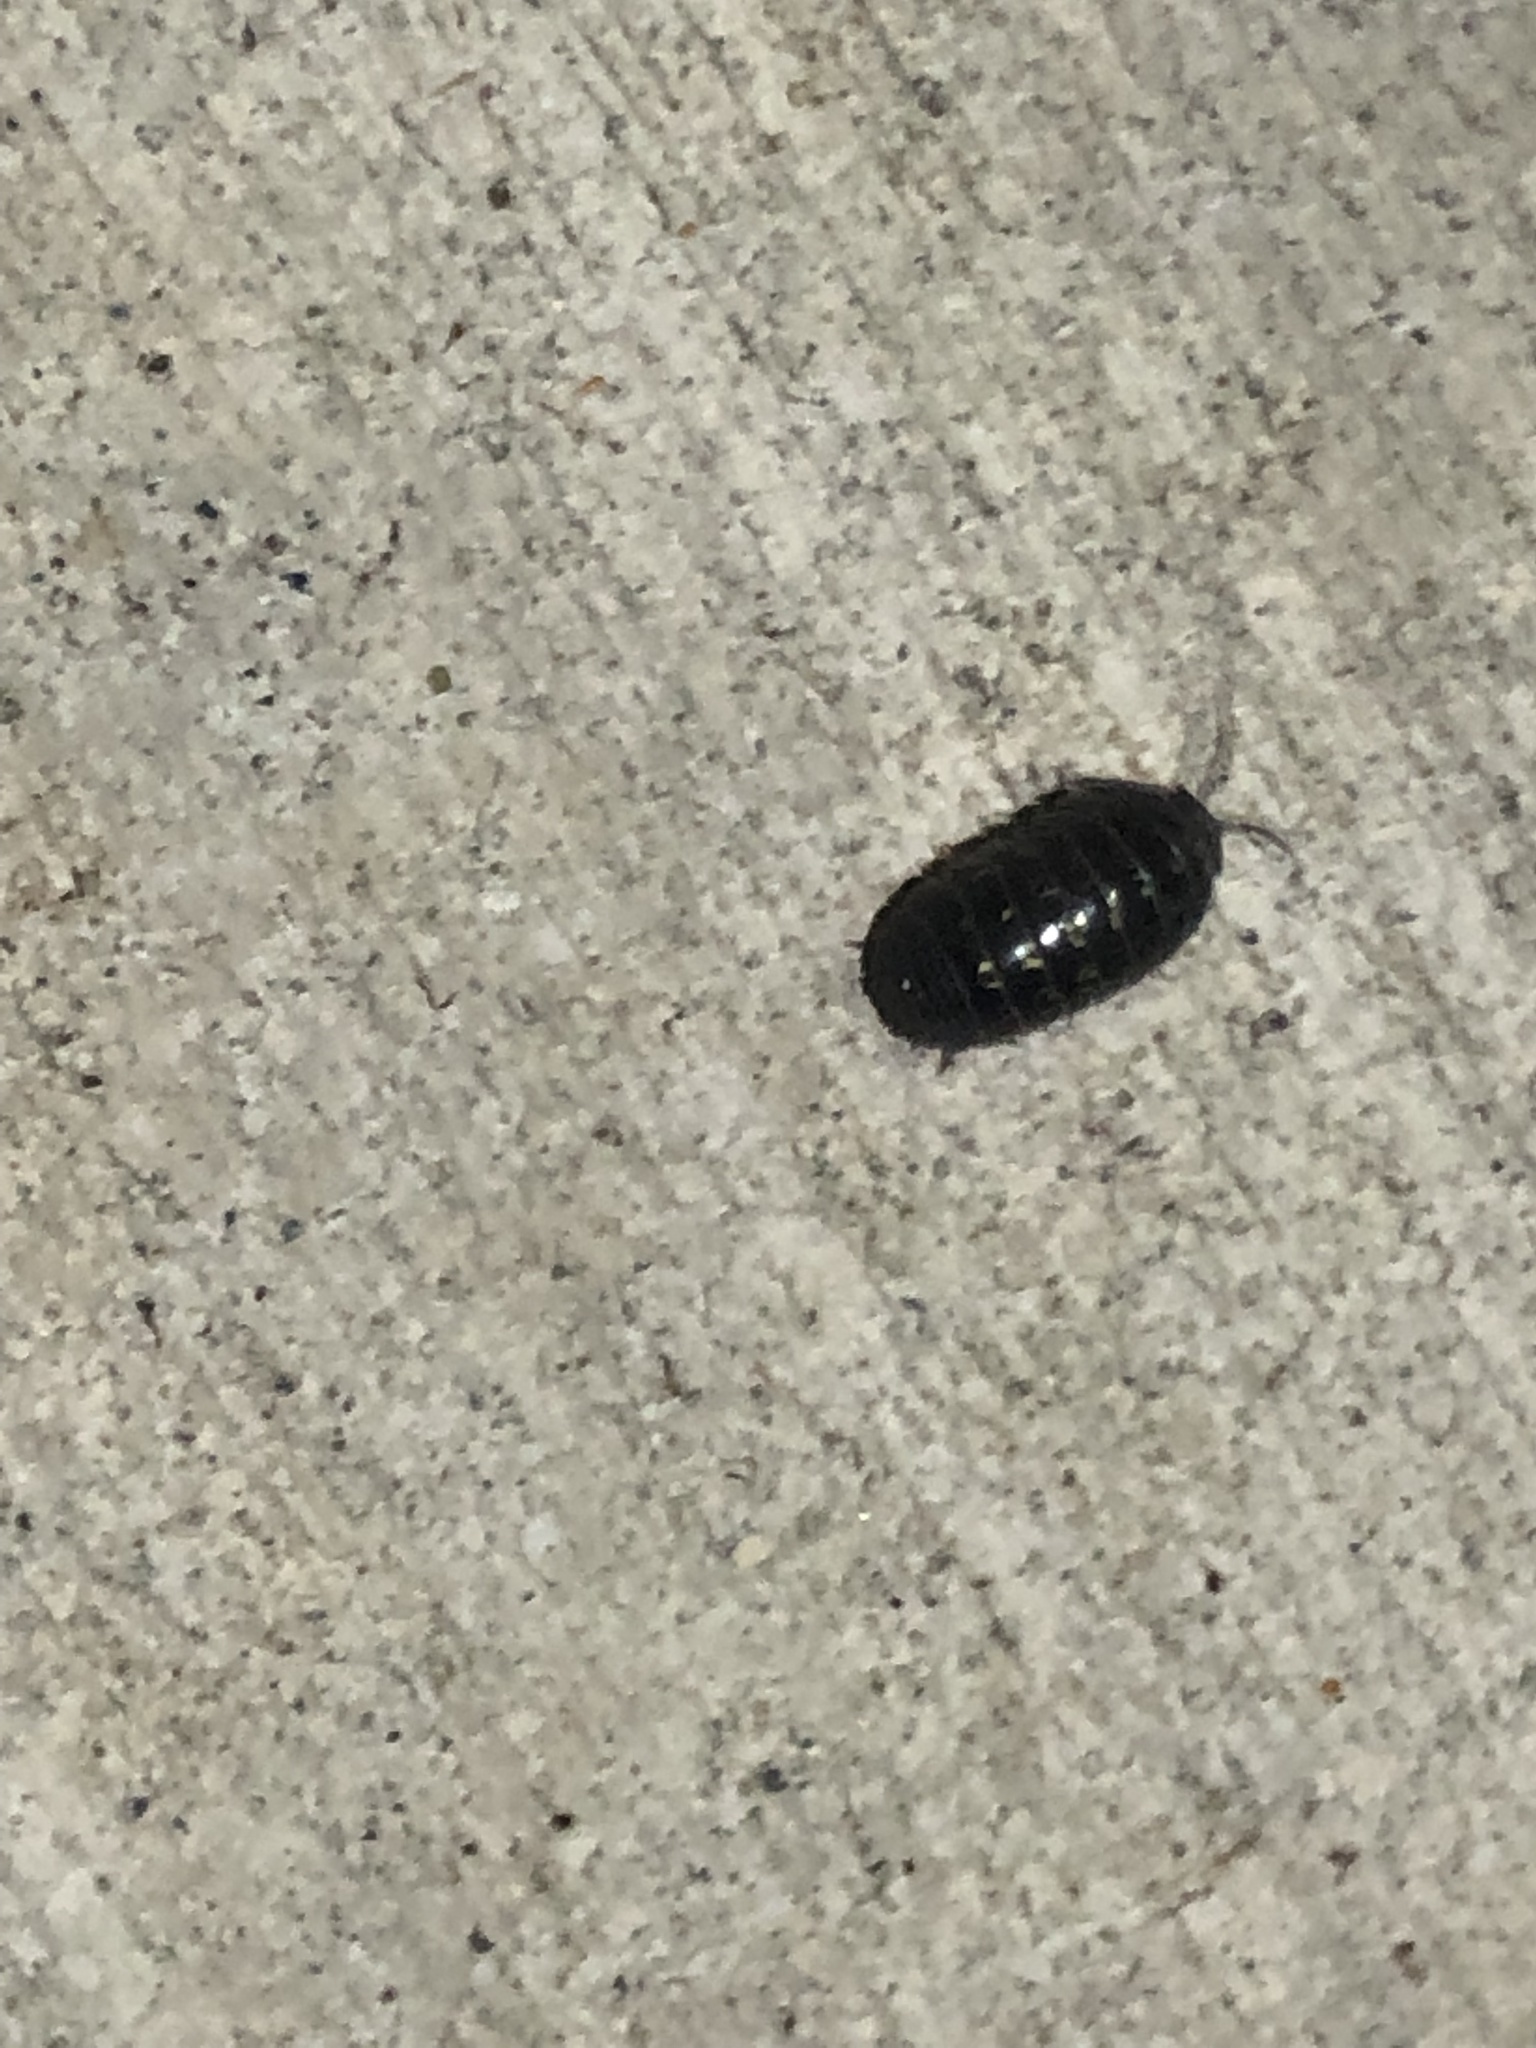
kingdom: Animalia
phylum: Arthropoda
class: Malacostraca
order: Isopoda
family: Armadillidiidae
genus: Armadillidium
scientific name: Armadillidium vulgare
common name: Common pill woodlouse
